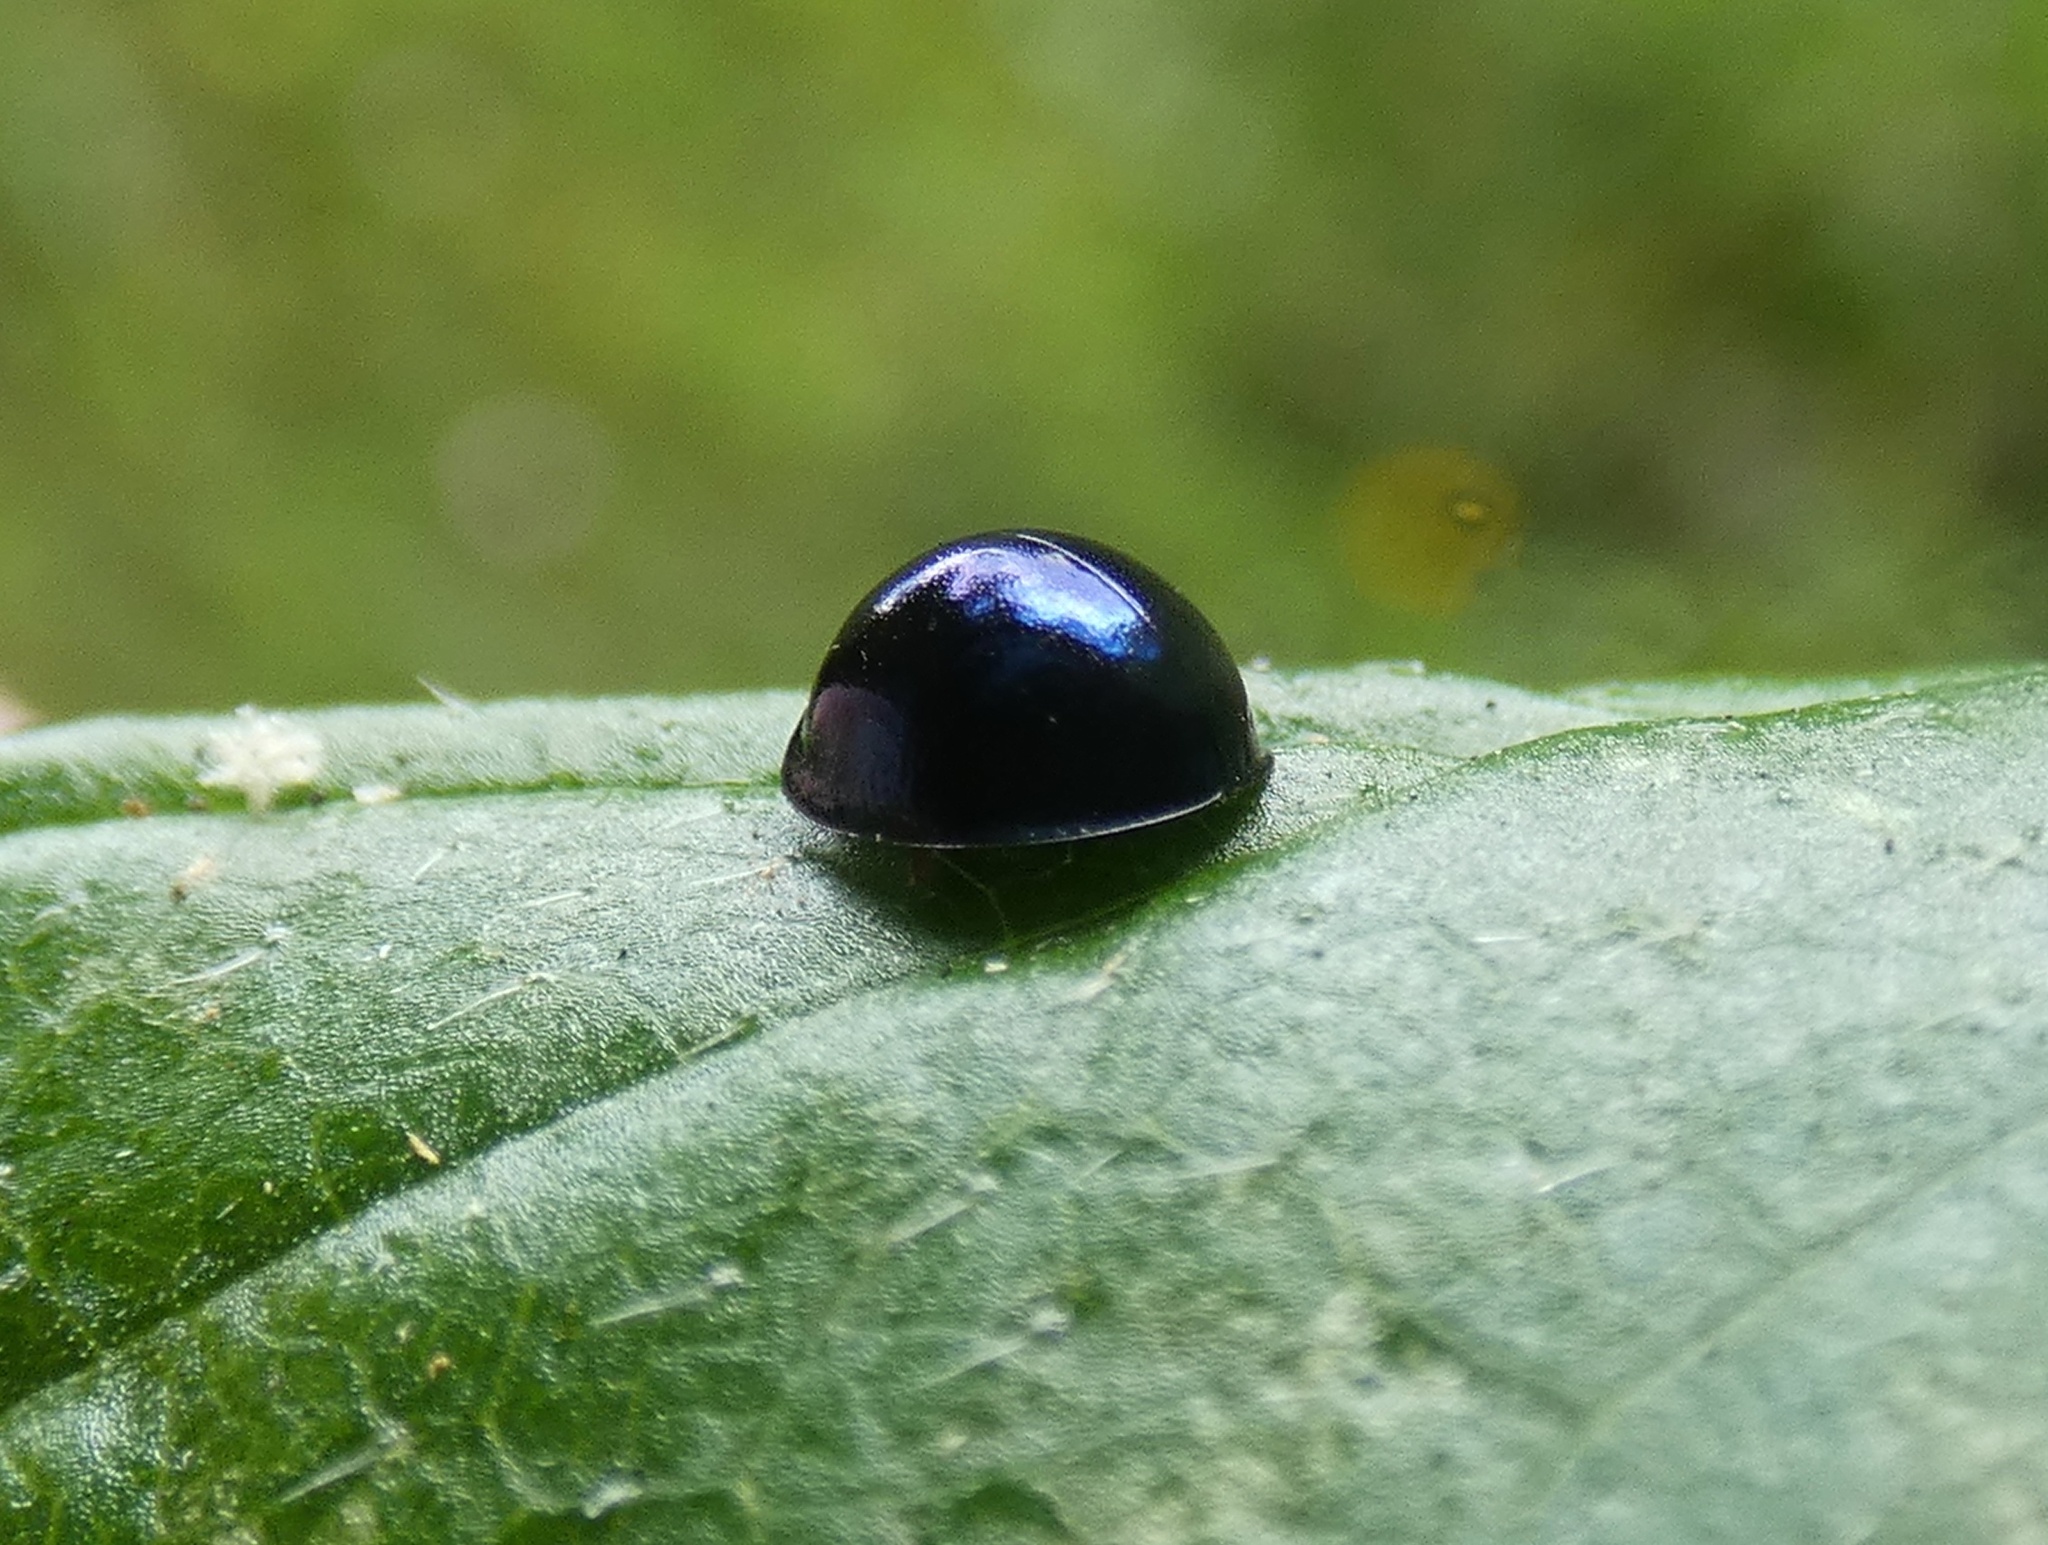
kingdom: Animalia
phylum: Arthropoda
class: Insecta
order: Coleoptera
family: Coccinellidae
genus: Halmus
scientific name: Halmus chalybeus
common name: Steel blue ladybird beetle
